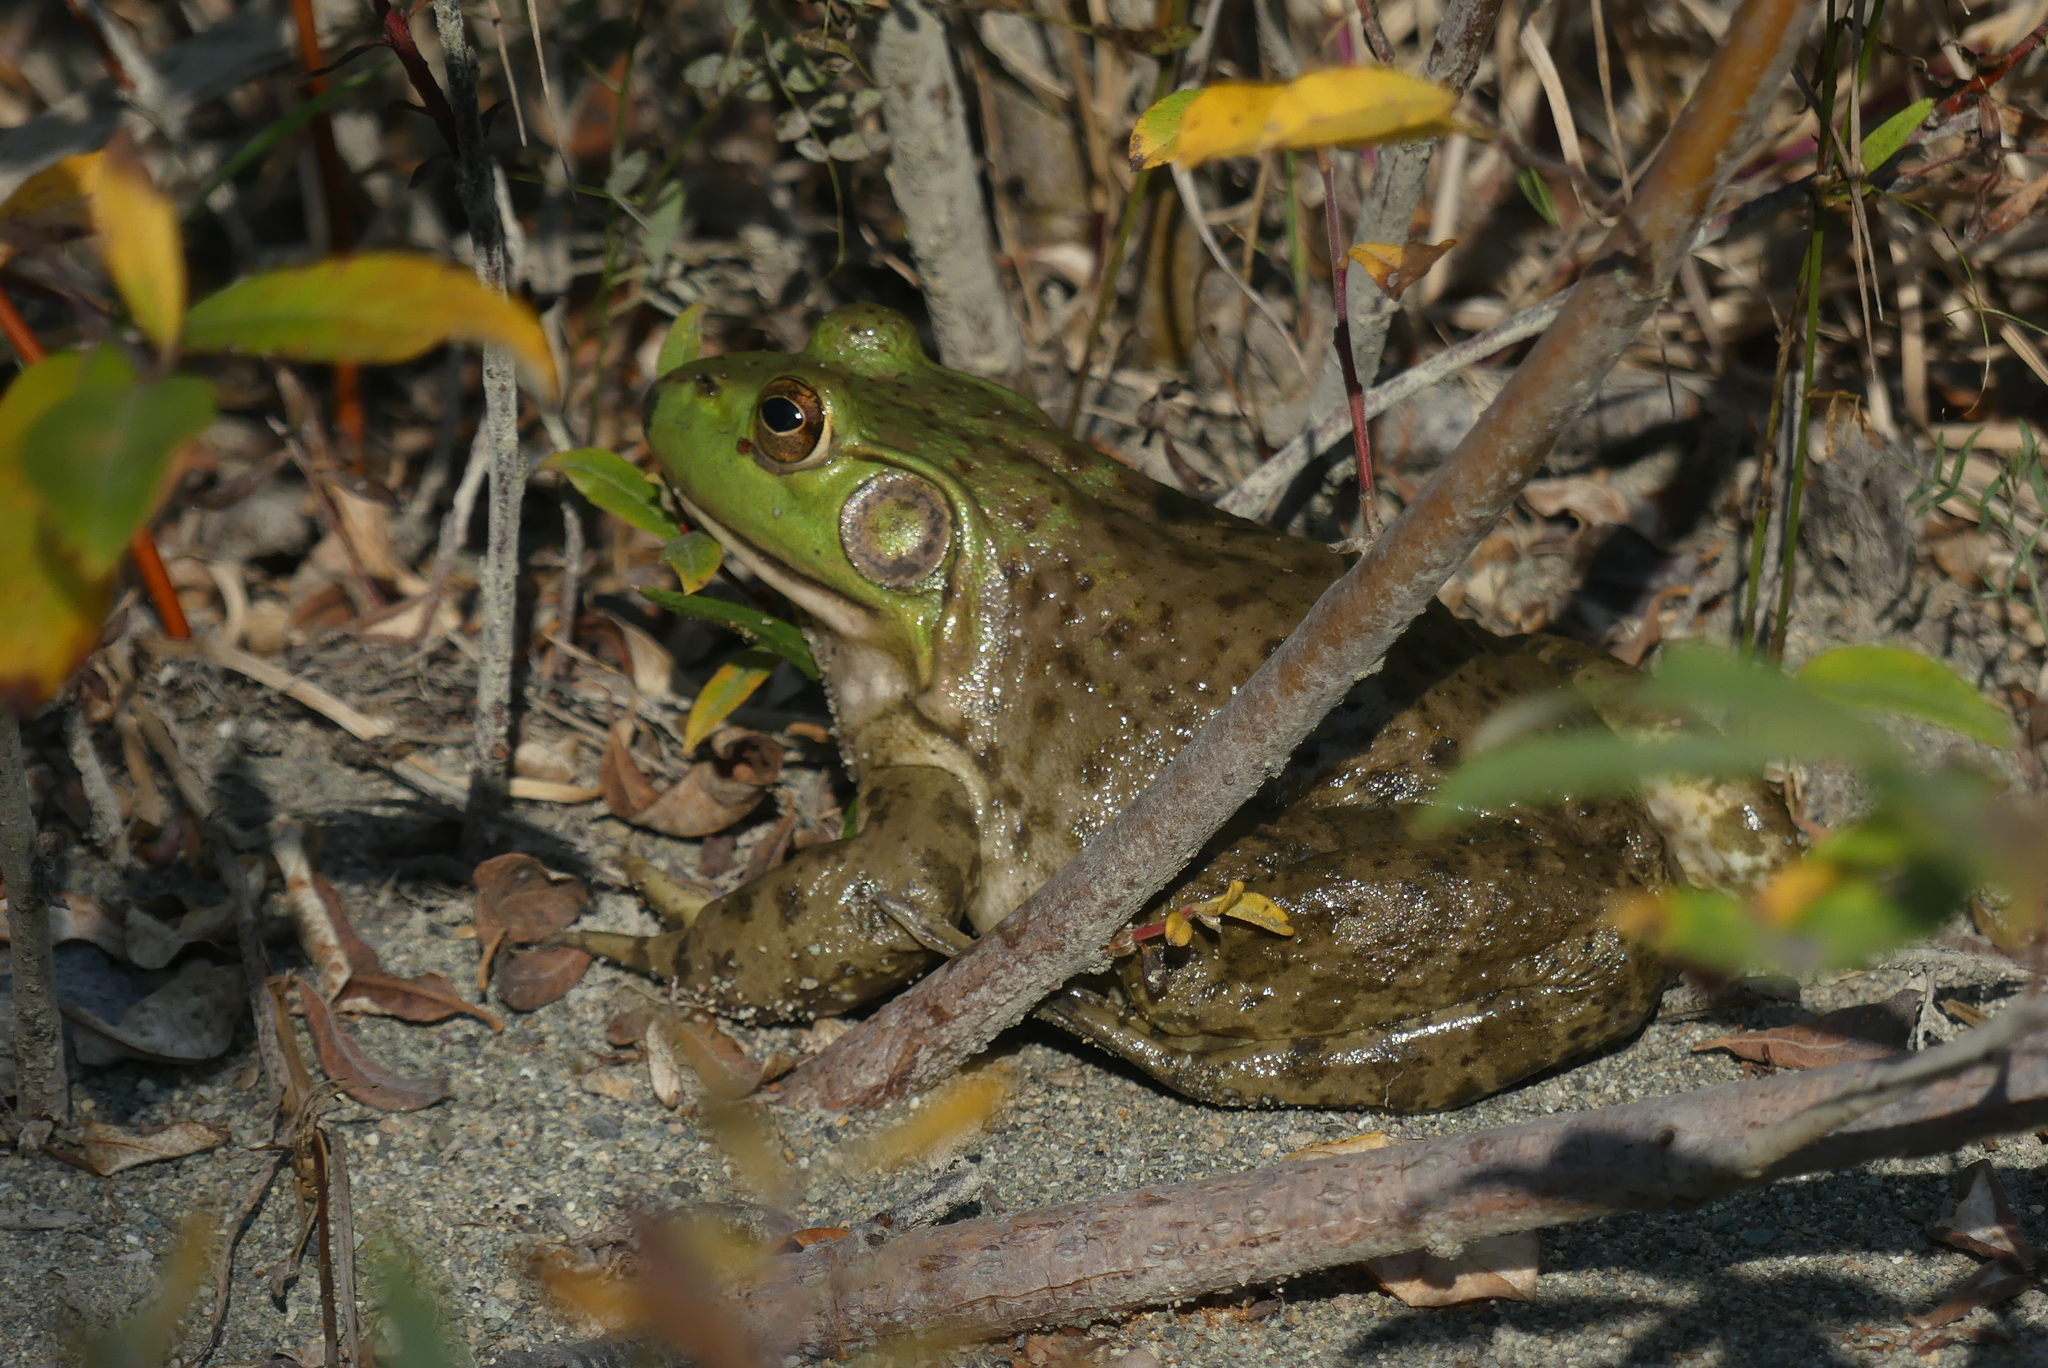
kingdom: Animalia
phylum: Chordata
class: Amphibia
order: Anura
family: Ranidae
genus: Lithobates
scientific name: Lithobates catesbeianus
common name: American bullfrog
